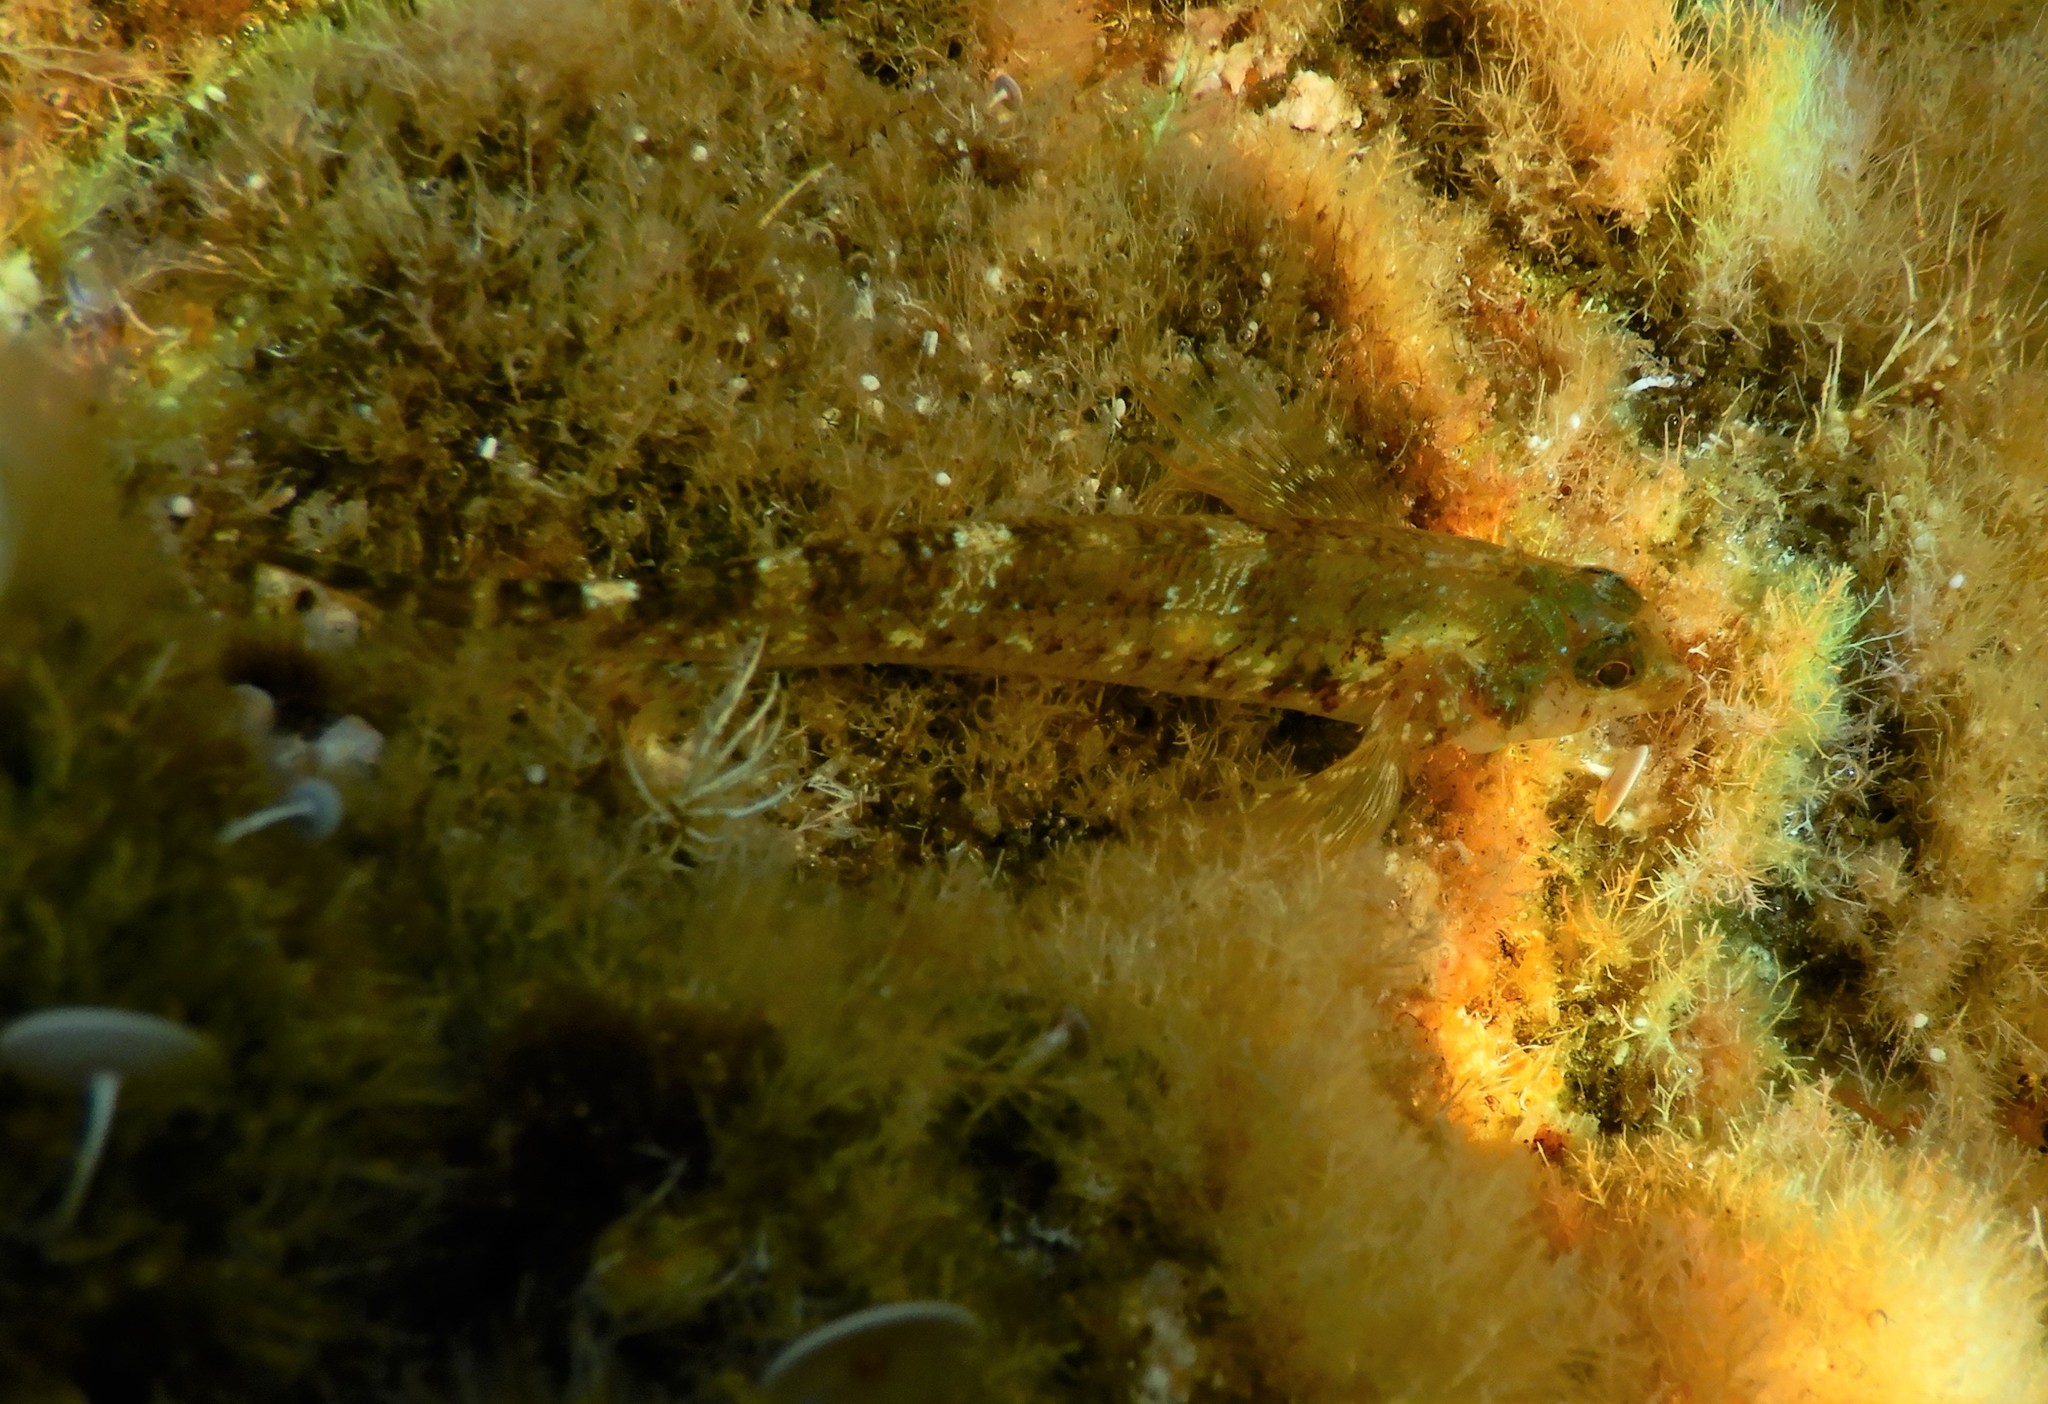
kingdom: Animalia
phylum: Chordata
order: Perciformes
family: Tripterygiidae
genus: Tripterygion
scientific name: Tripterygion tripteronotum
